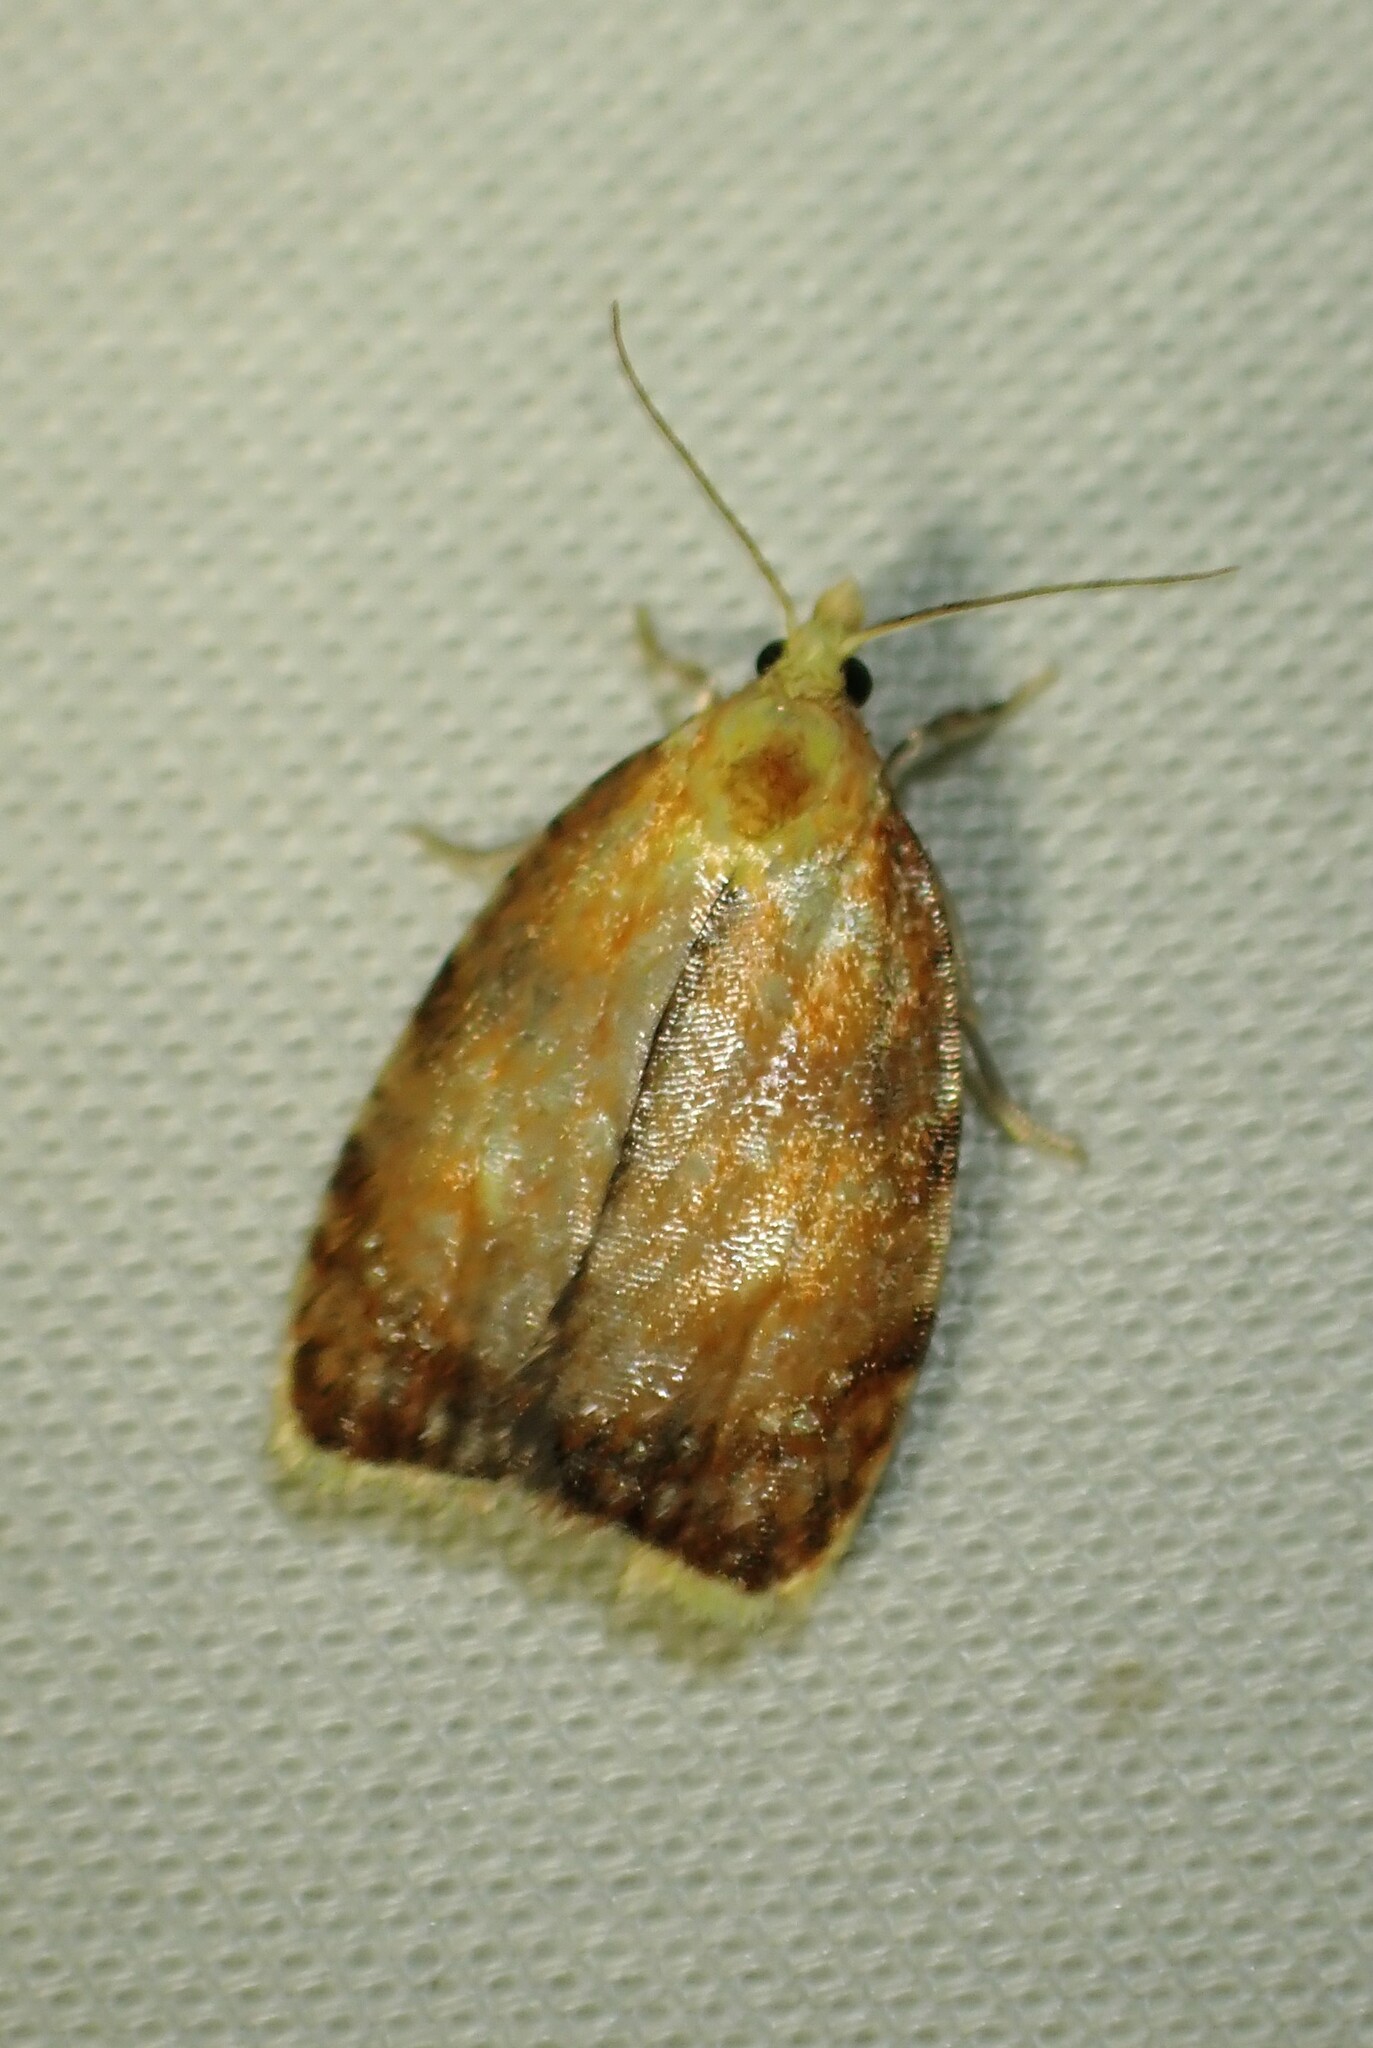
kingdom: Animalia
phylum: Arthropoda
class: Insecta
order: Lepidoptera
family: Tortricidae
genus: Acleris
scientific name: Acleris curvalana
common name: Blueberry leaftier moth
